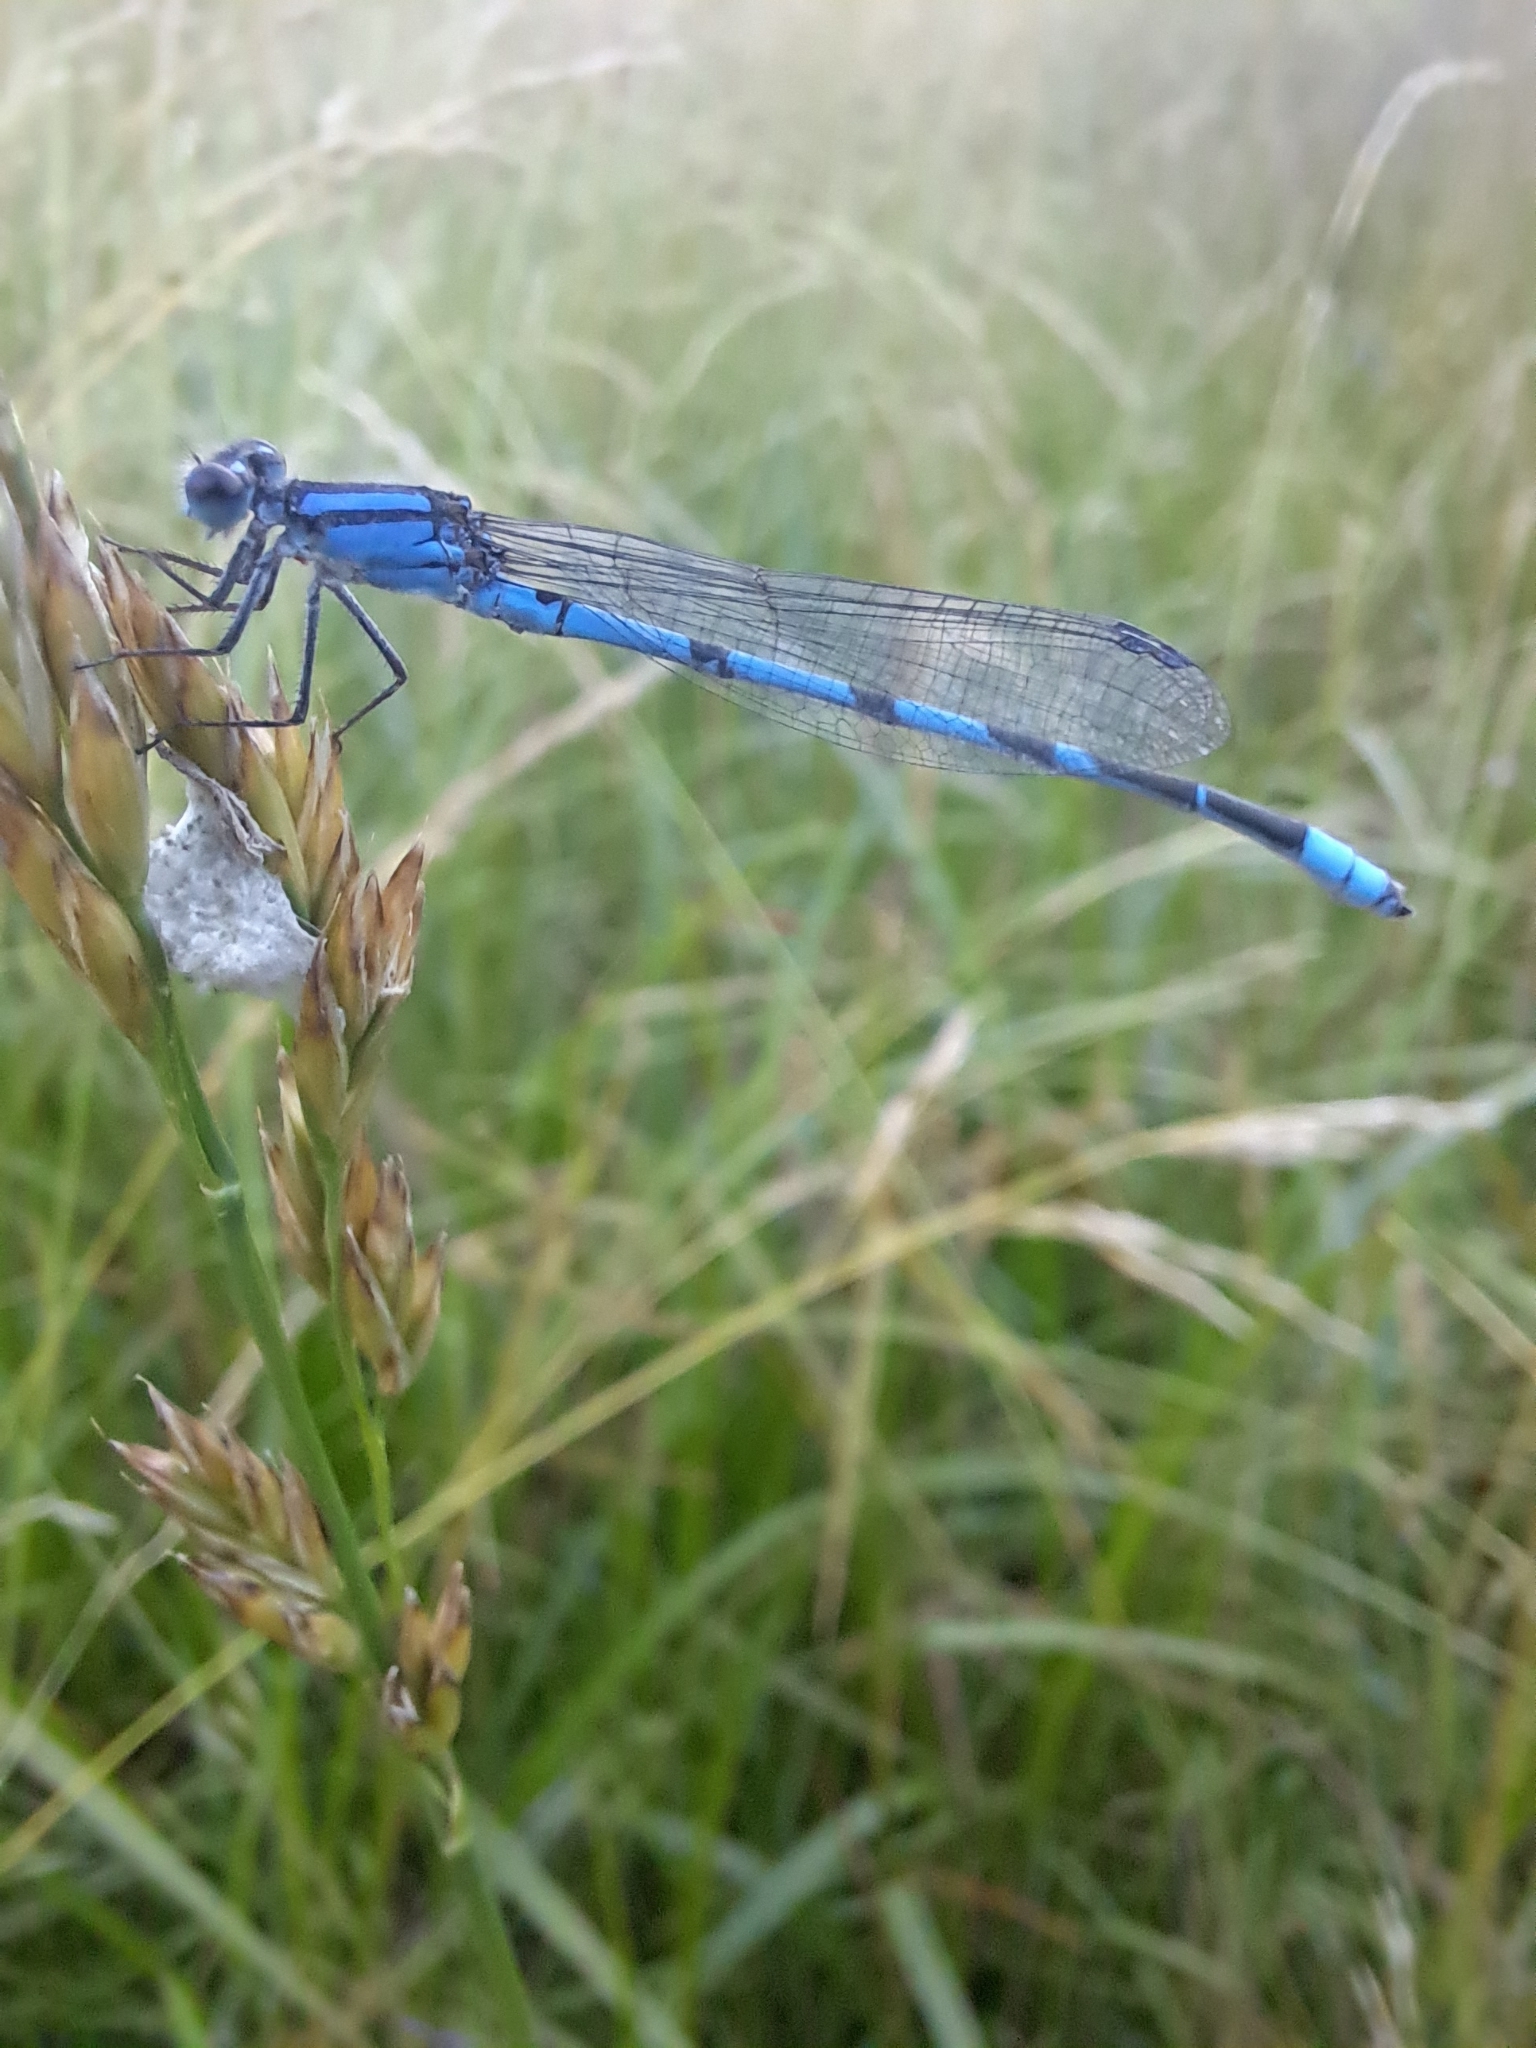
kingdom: Animalia
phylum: Arthropoda
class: Insecta
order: Odonata
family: Coenagrionidae
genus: Enallagma
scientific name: Enallagma civile
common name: Damselfly
